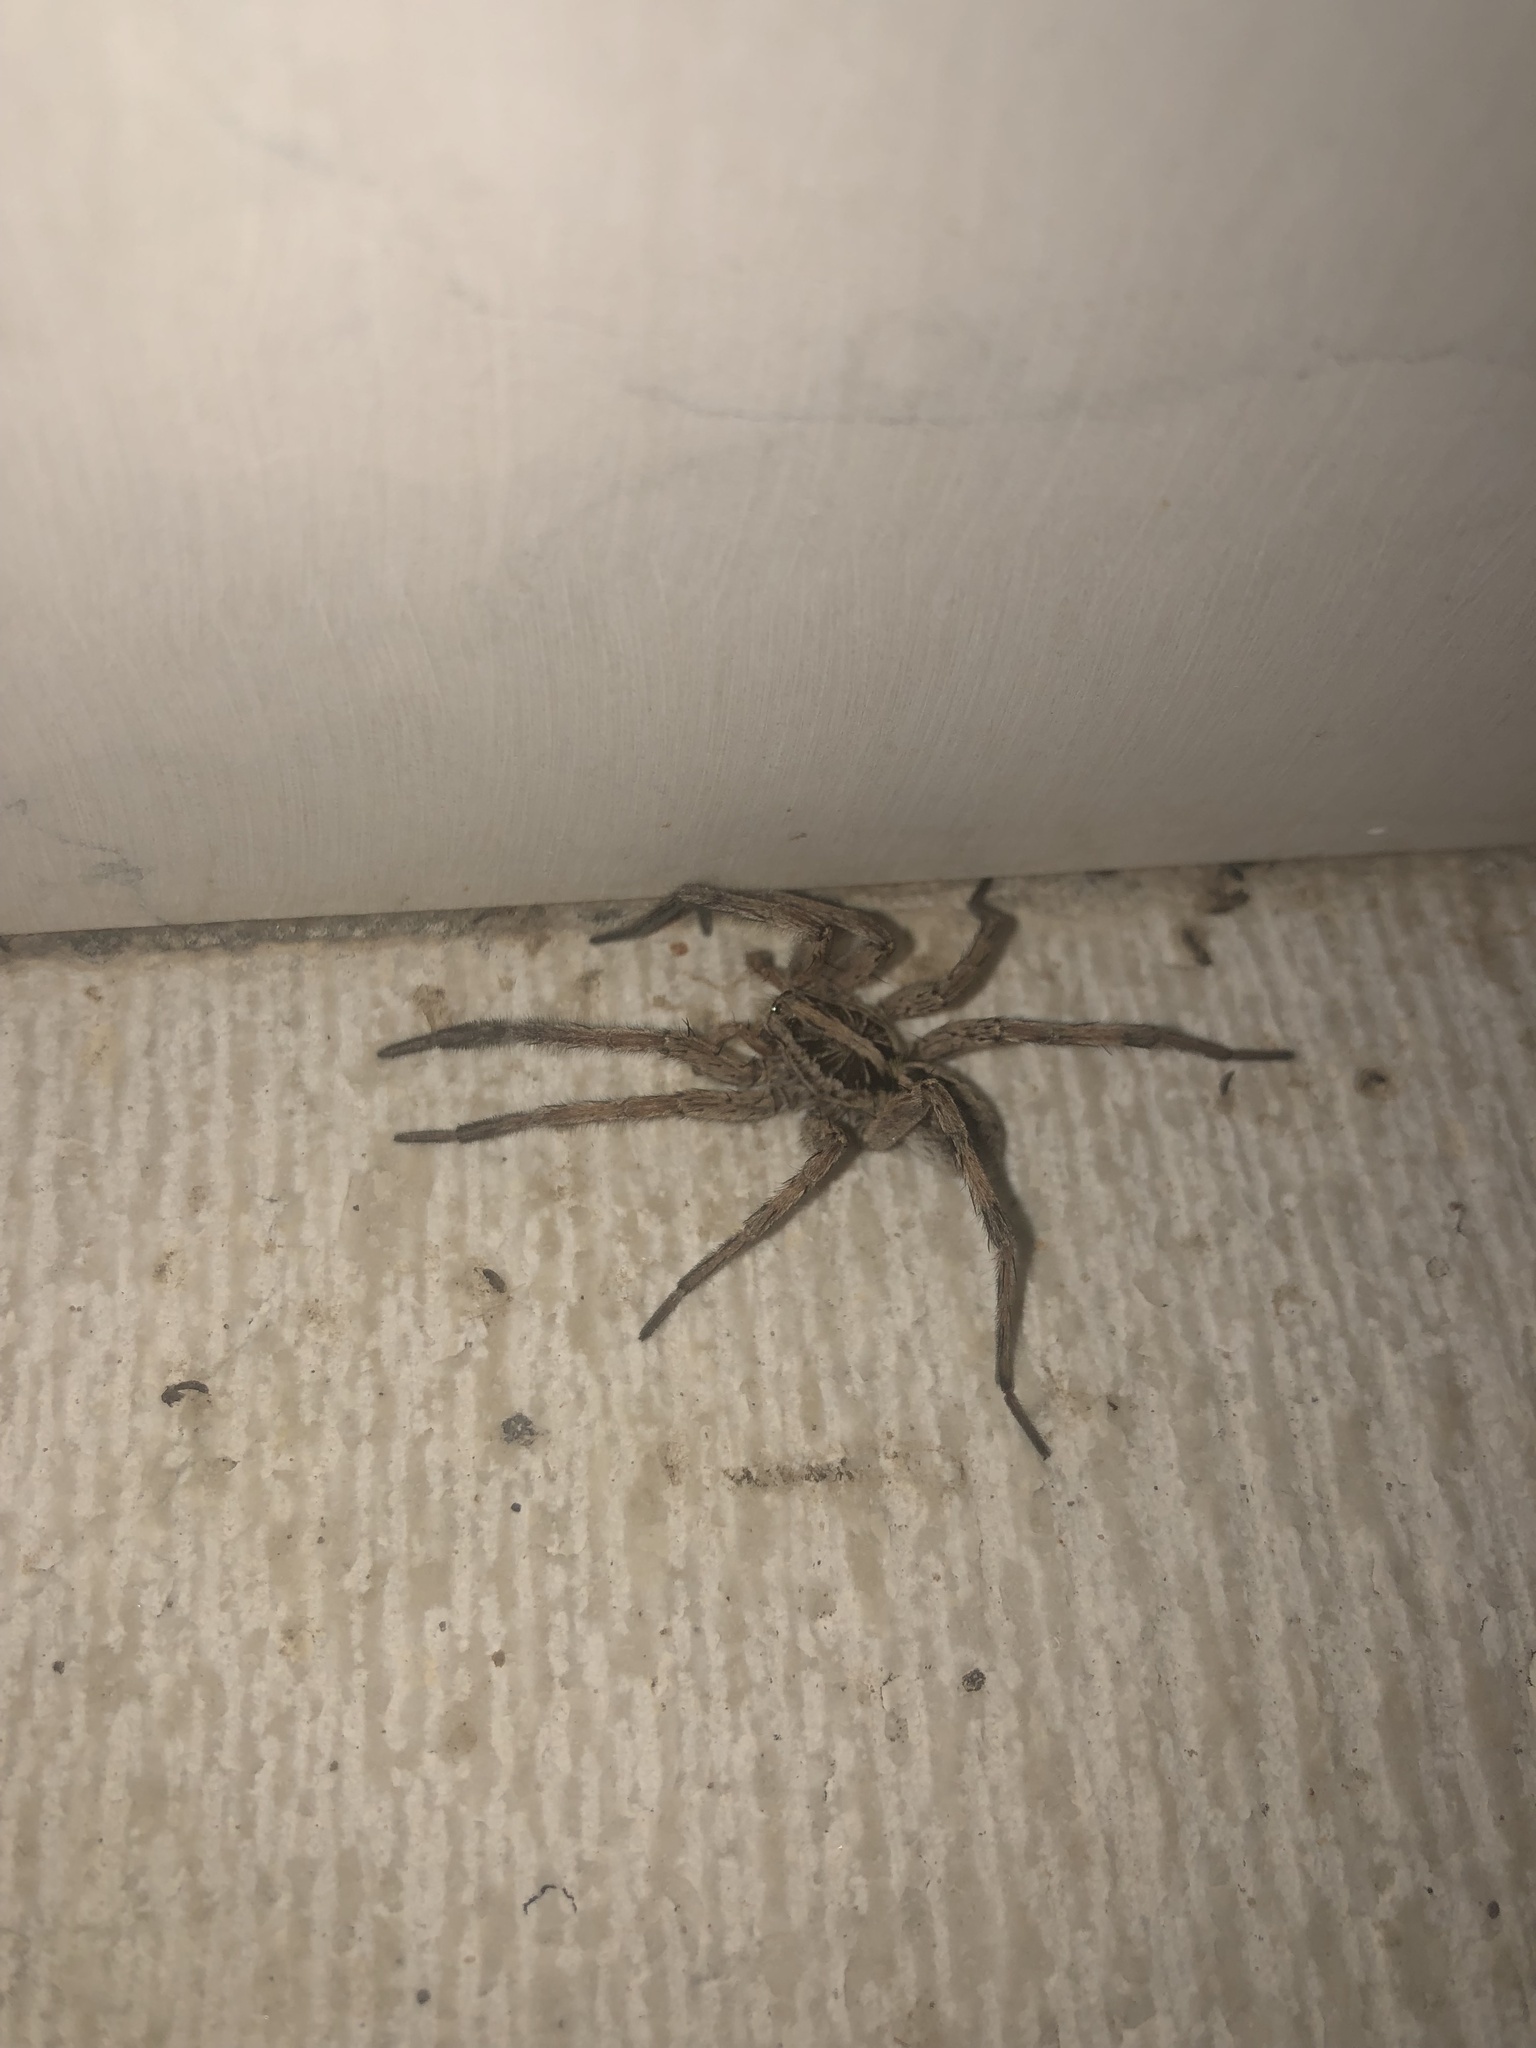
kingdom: Animalia
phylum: Arthropoda
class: Arachnida
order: Araneae
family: Lycosidae
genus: Hogna
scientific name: Hogna radiata
